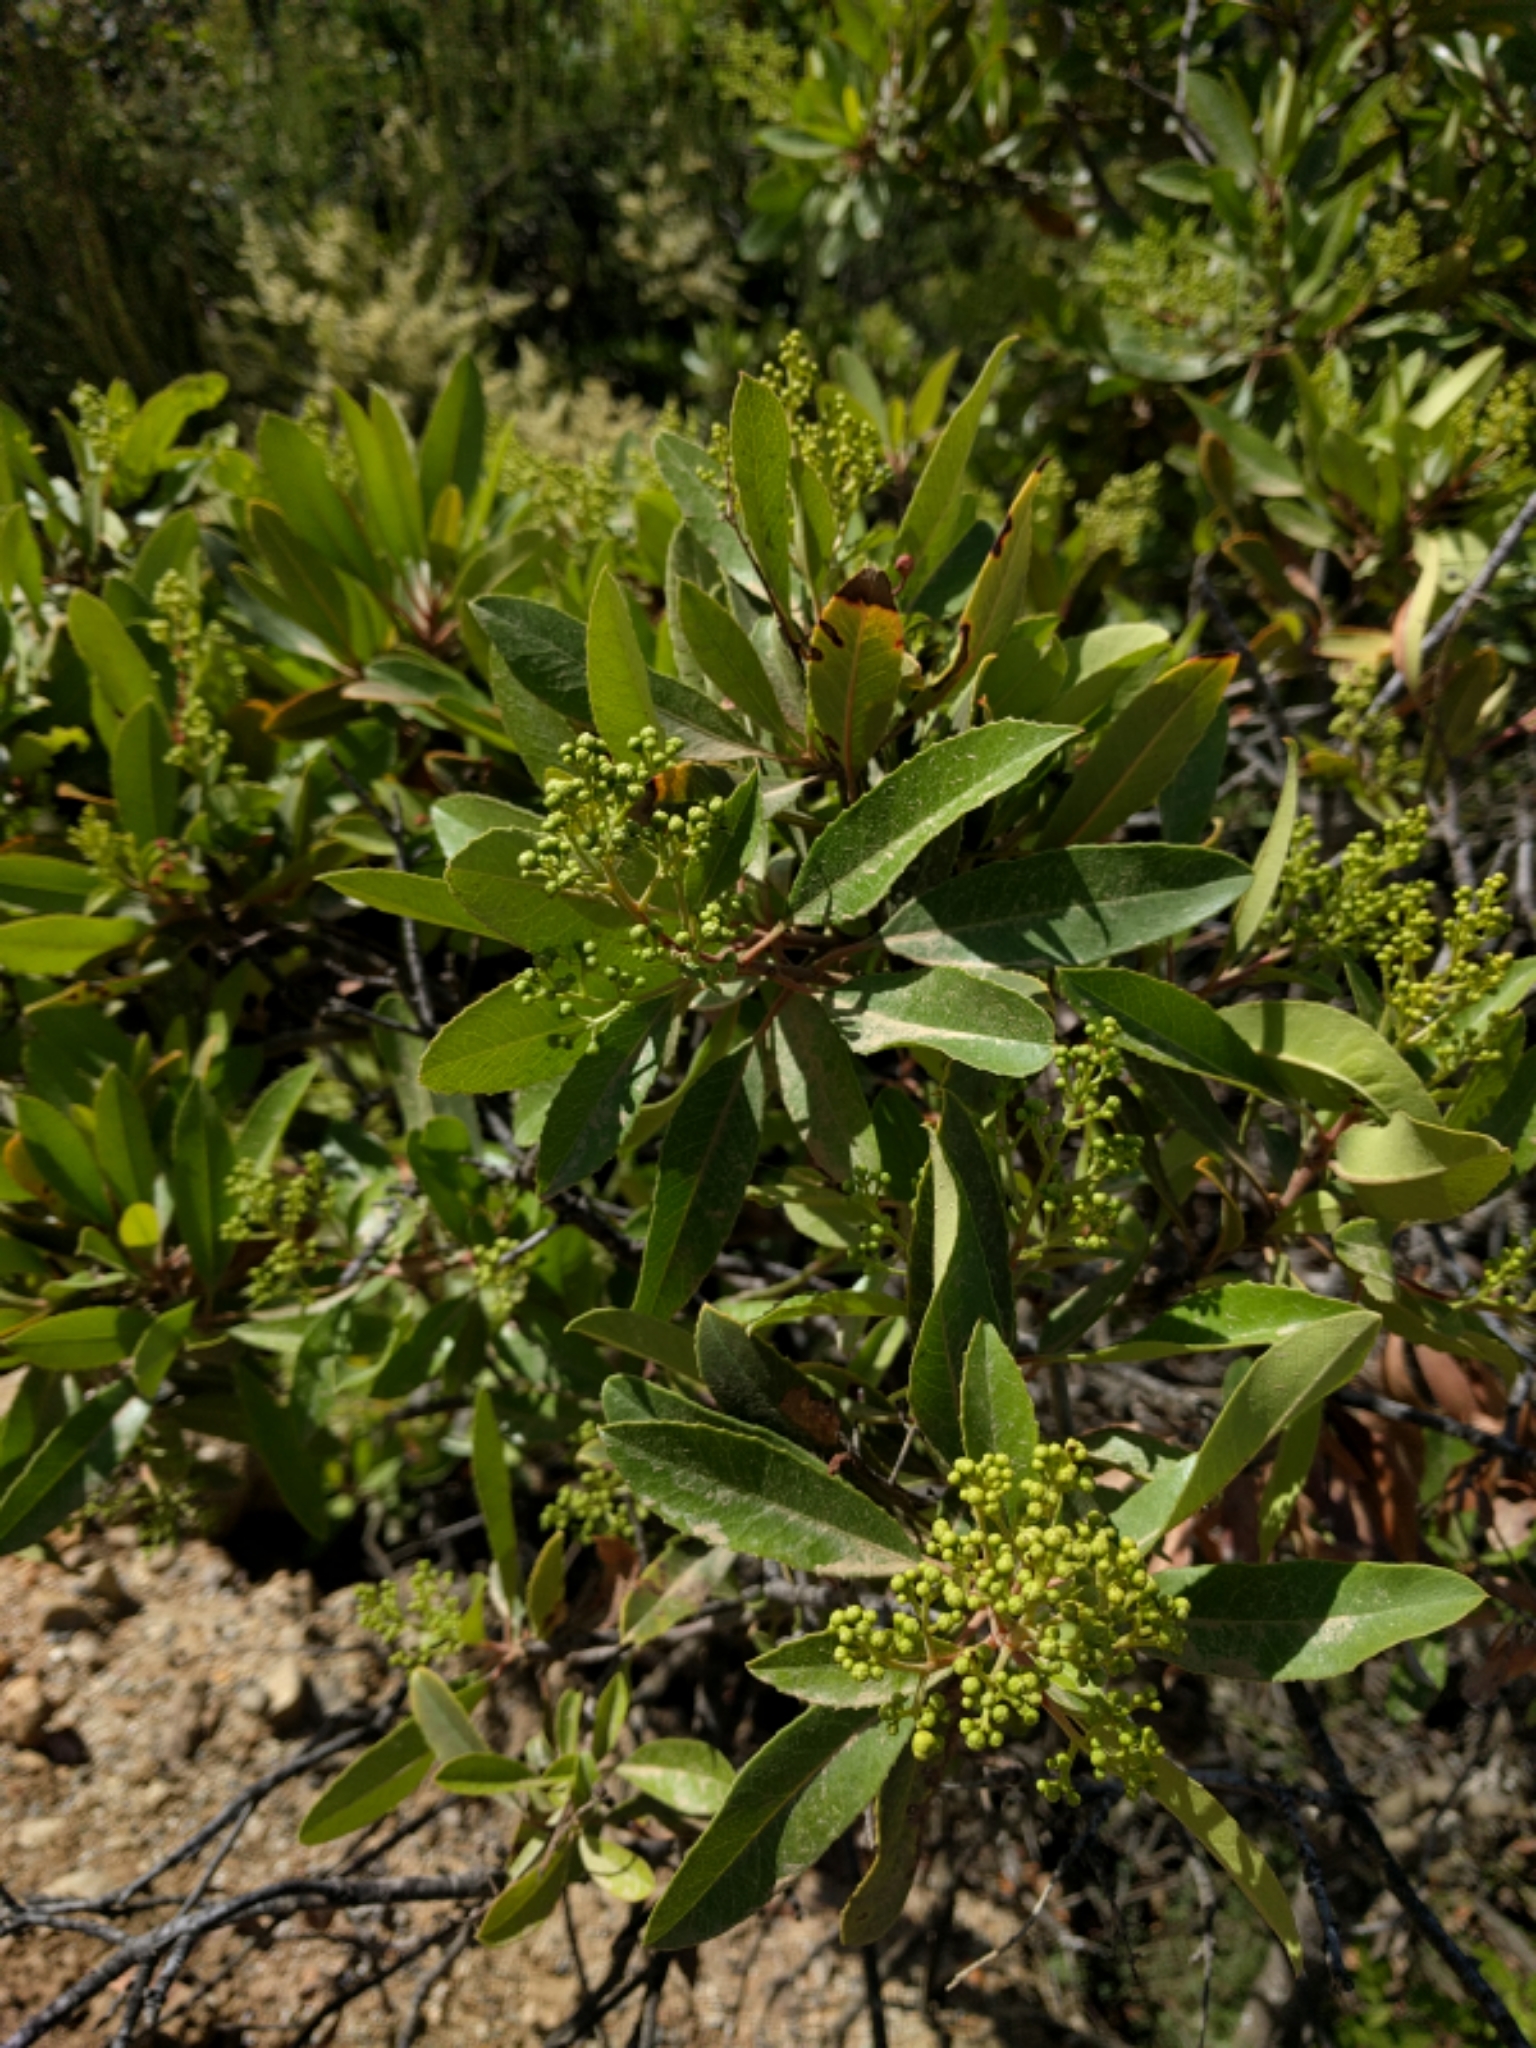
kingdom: Plantae
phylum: Tracheophyta
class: Magnoliopsida
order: Rosales
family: Rosaceae
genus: Heteromeles
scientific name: Heteromeles arbutifolia
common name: California-holly
